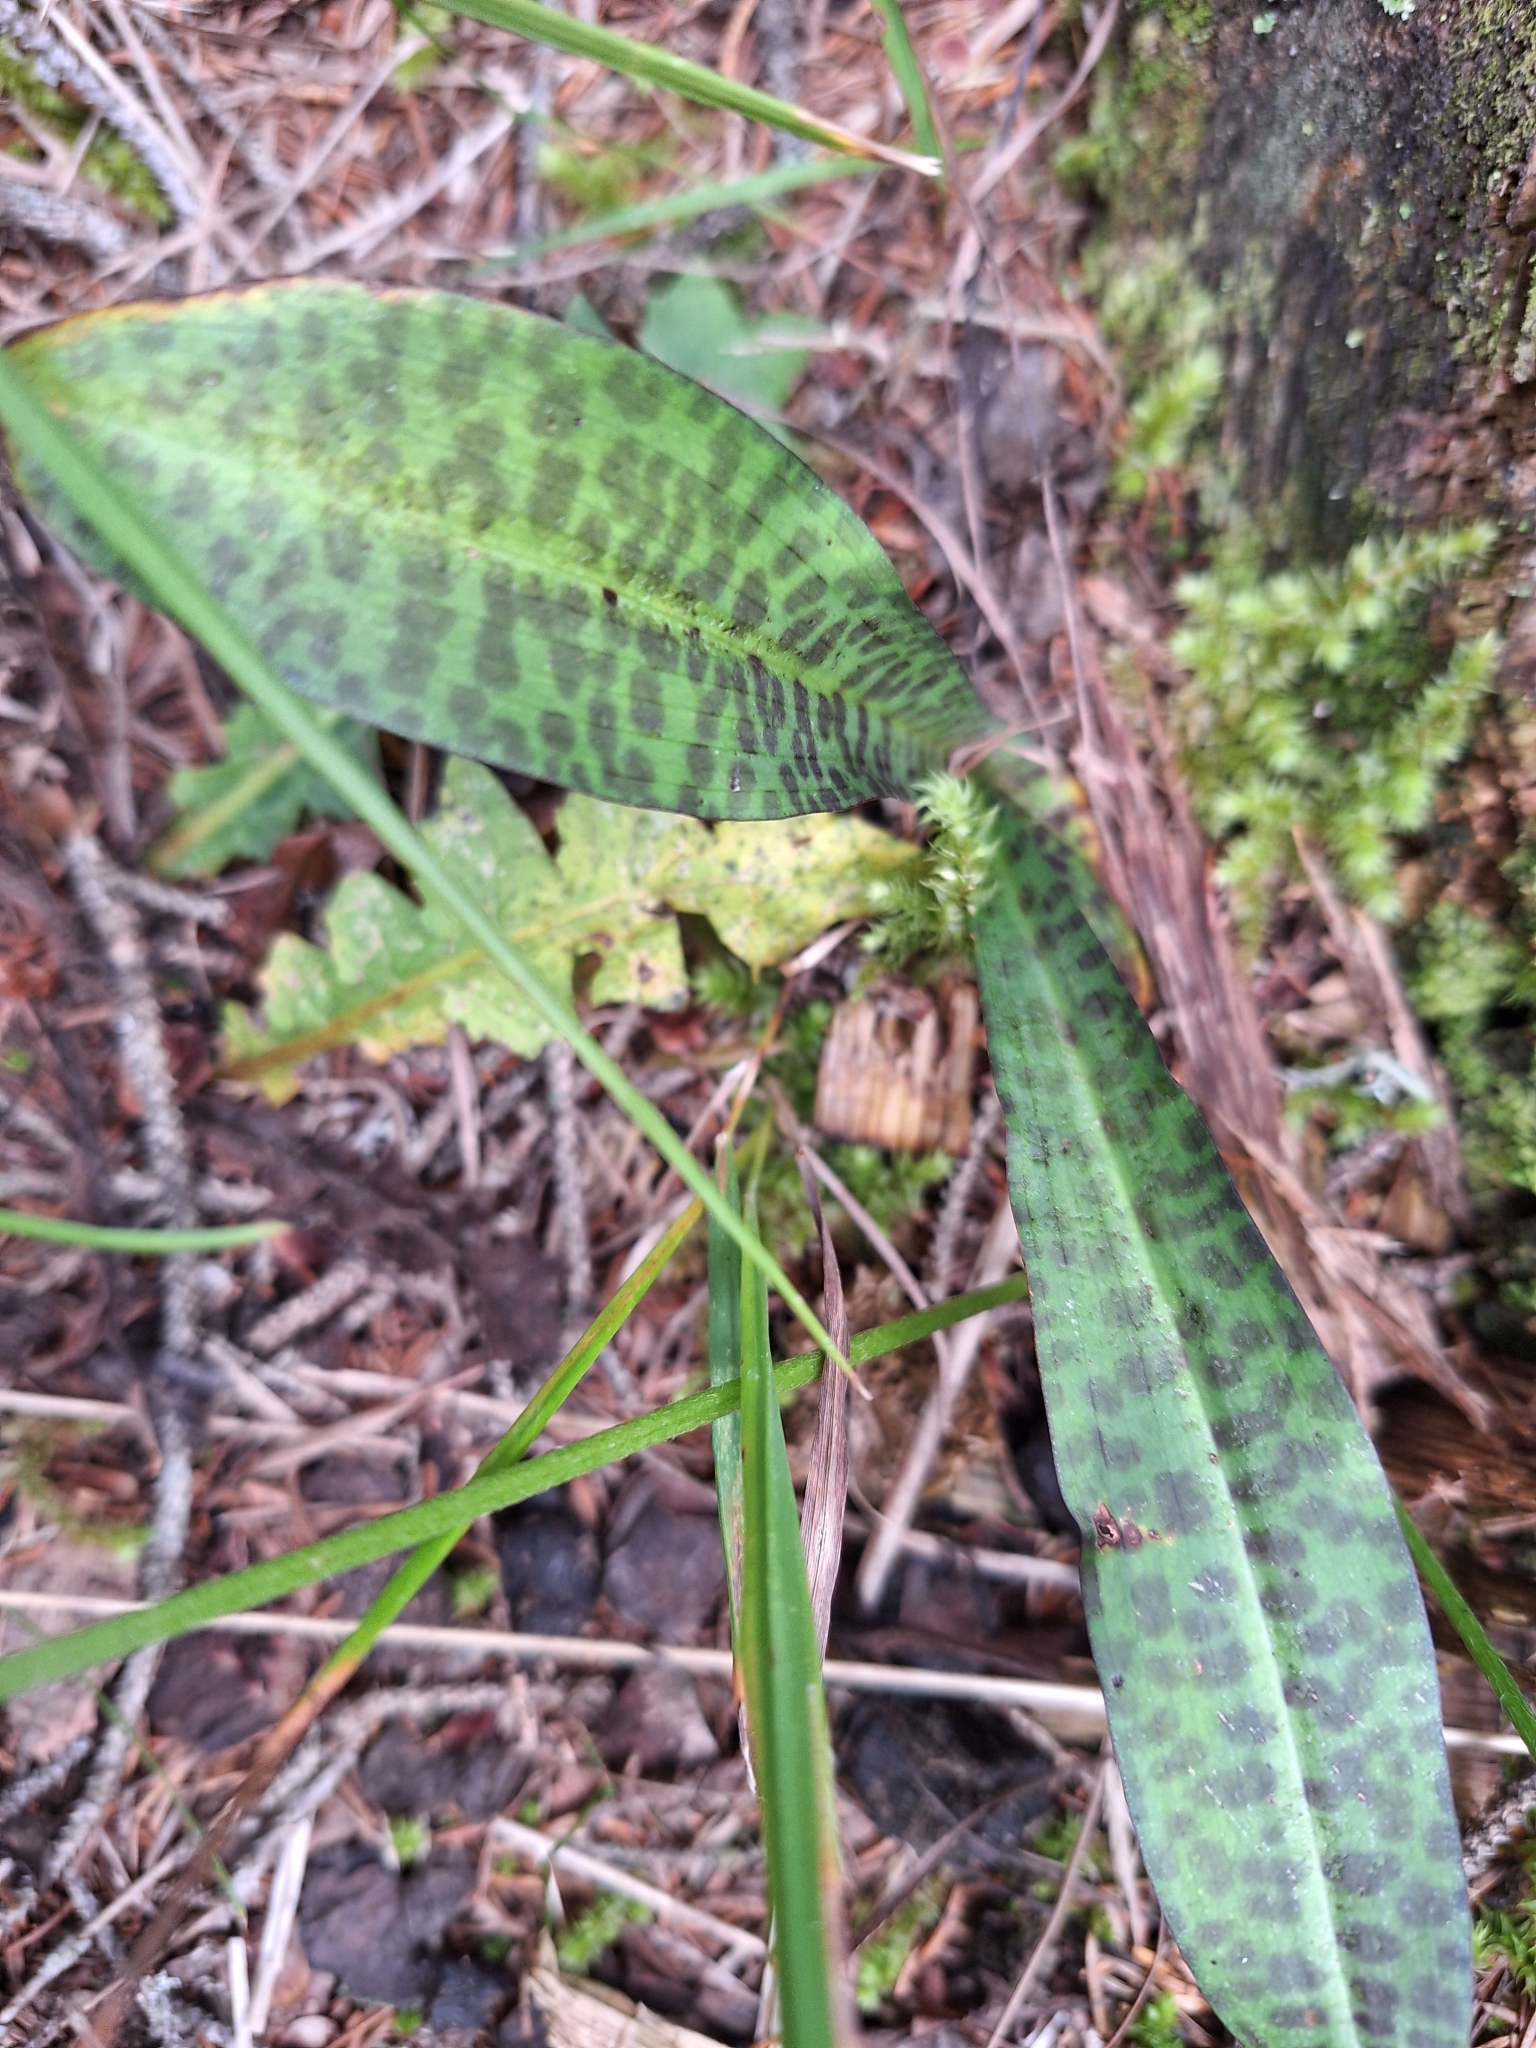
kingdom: Plantae
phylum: Tracheophyta
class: Liliopsida
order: Asparagales
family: Orchidaceae
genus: Dactylorhiza
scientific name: Dactylorhiza maculata
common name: Heath spotted-orchid
